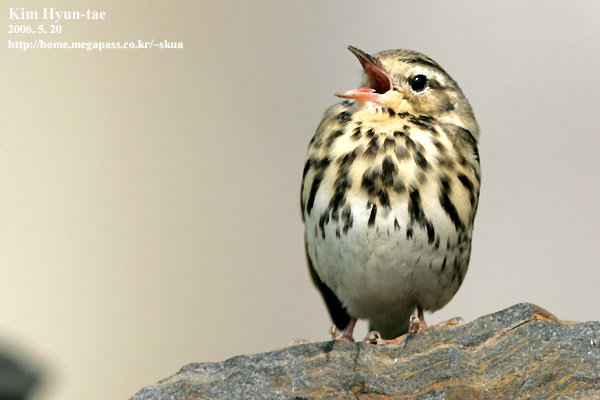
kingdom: Animalia
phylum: Chordata
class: Aves
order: Passeriformes
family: Motacillidae
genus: Anthus
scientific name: Anthus hodgsoni
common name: Olive-backed pipit
